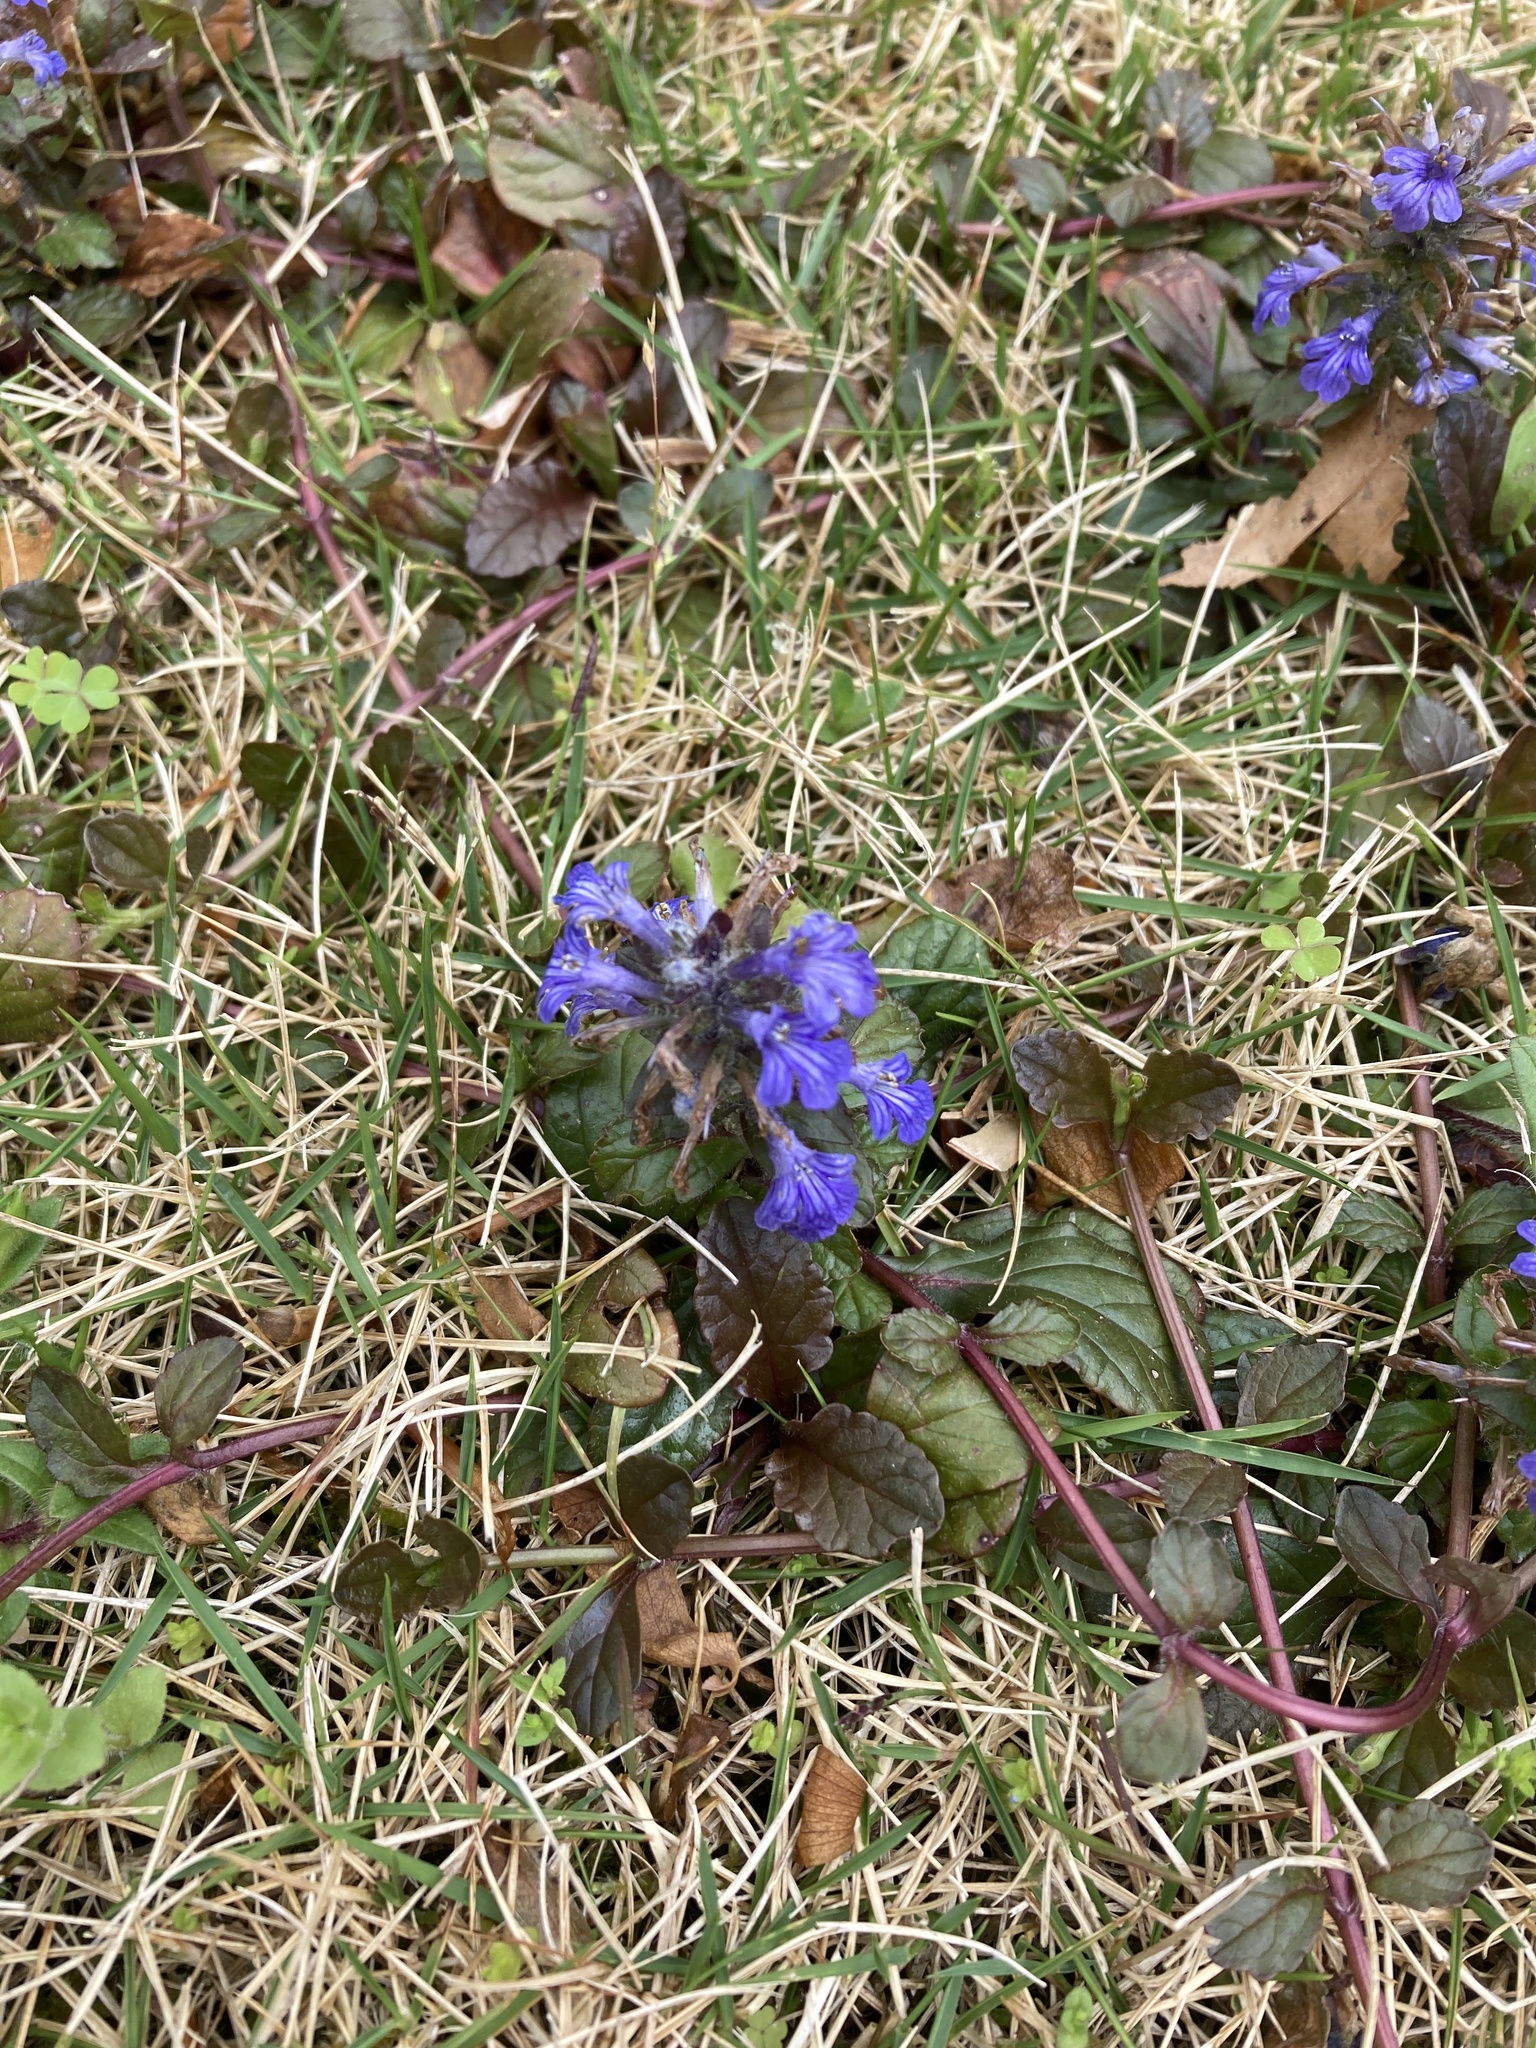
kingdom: Plantae
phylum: Tracheophyta
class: Magnoliopsida
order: Lamiales
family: Lamiaceae
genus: Ajuga
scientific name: Ajuga reptans
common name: Bugle
